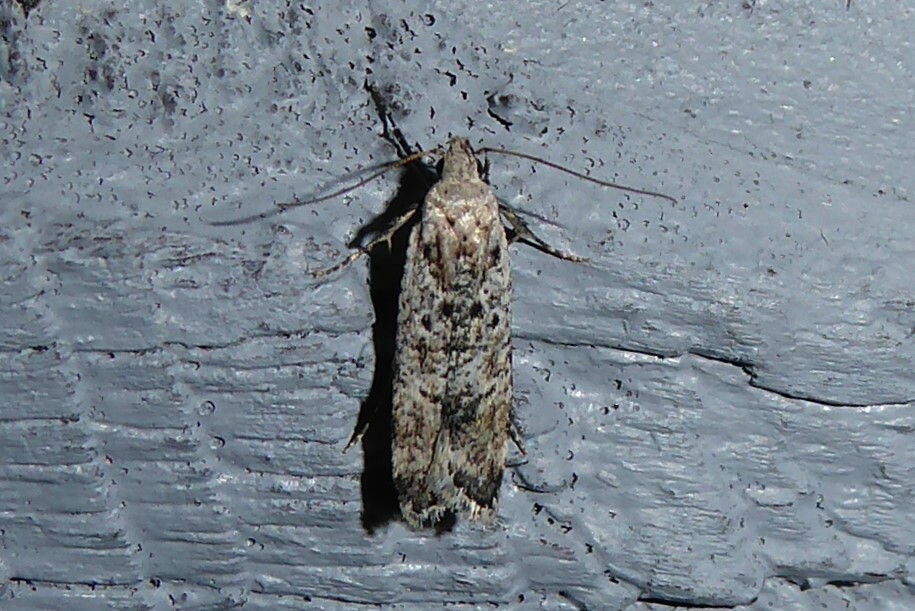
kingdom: Animalia
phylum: Arthropoda
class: Insecta
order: Lepidoptera
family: Gelechiidae
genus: Anisoplaca
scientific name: Anisoplaca achyrota
